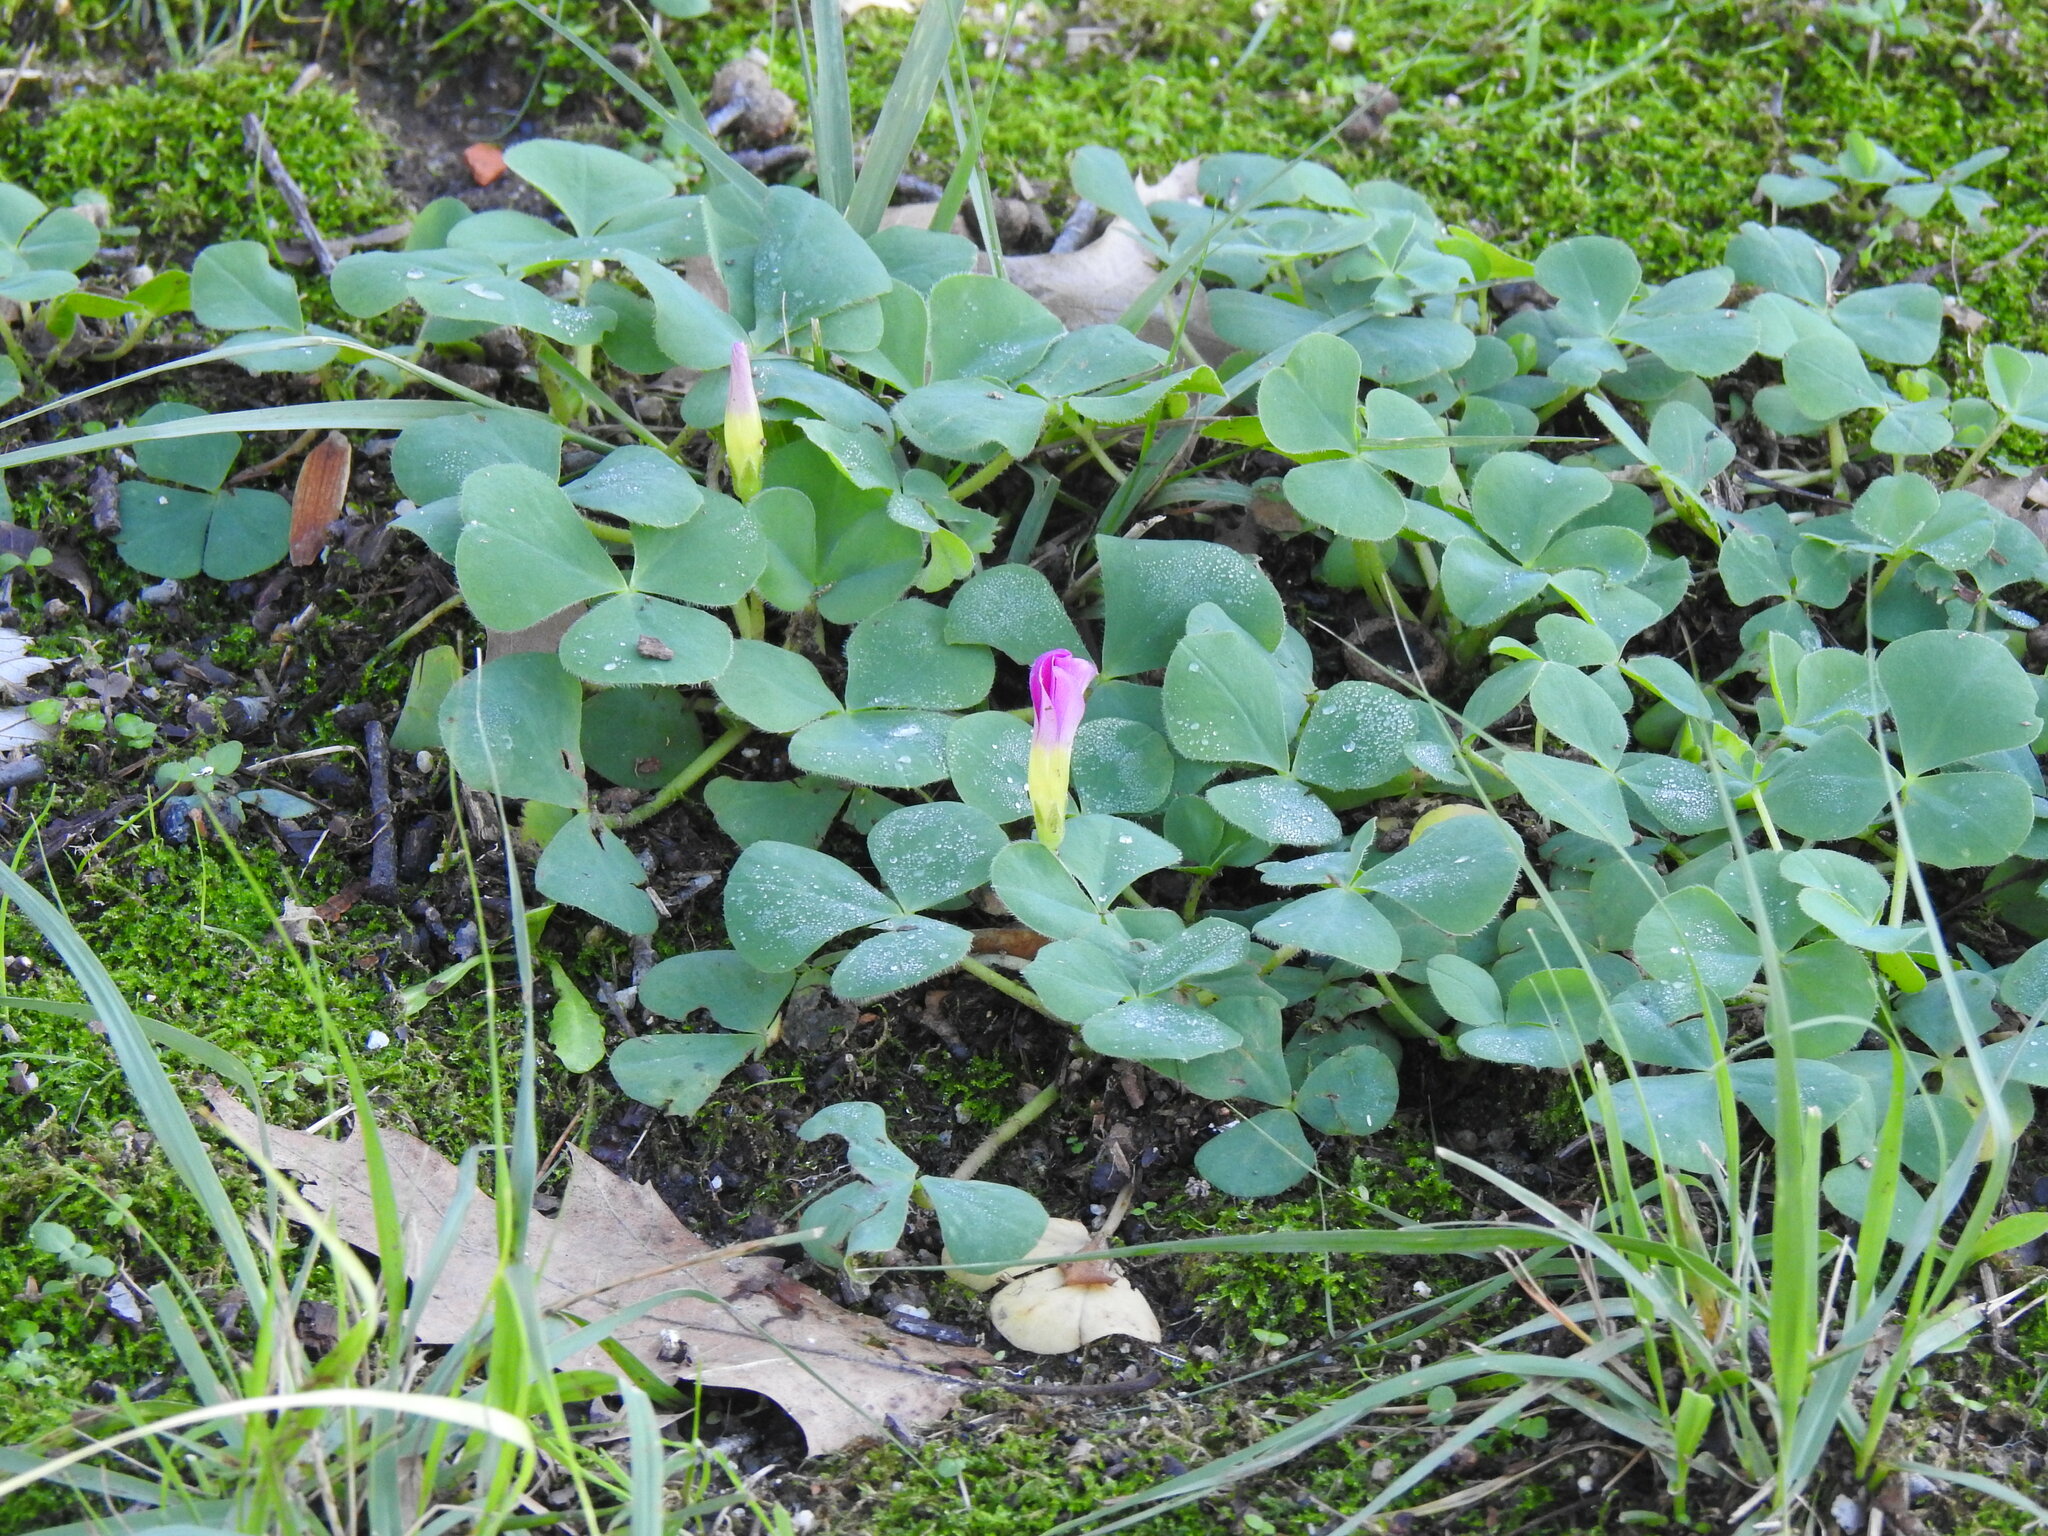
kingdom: Plantae
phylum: Tracheophyta
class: Magnoliopsida
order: Oxalidales
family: Oxalidaceae
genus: Oxalis
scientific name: Oxalis purpurea
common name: Purple woodsorrel
